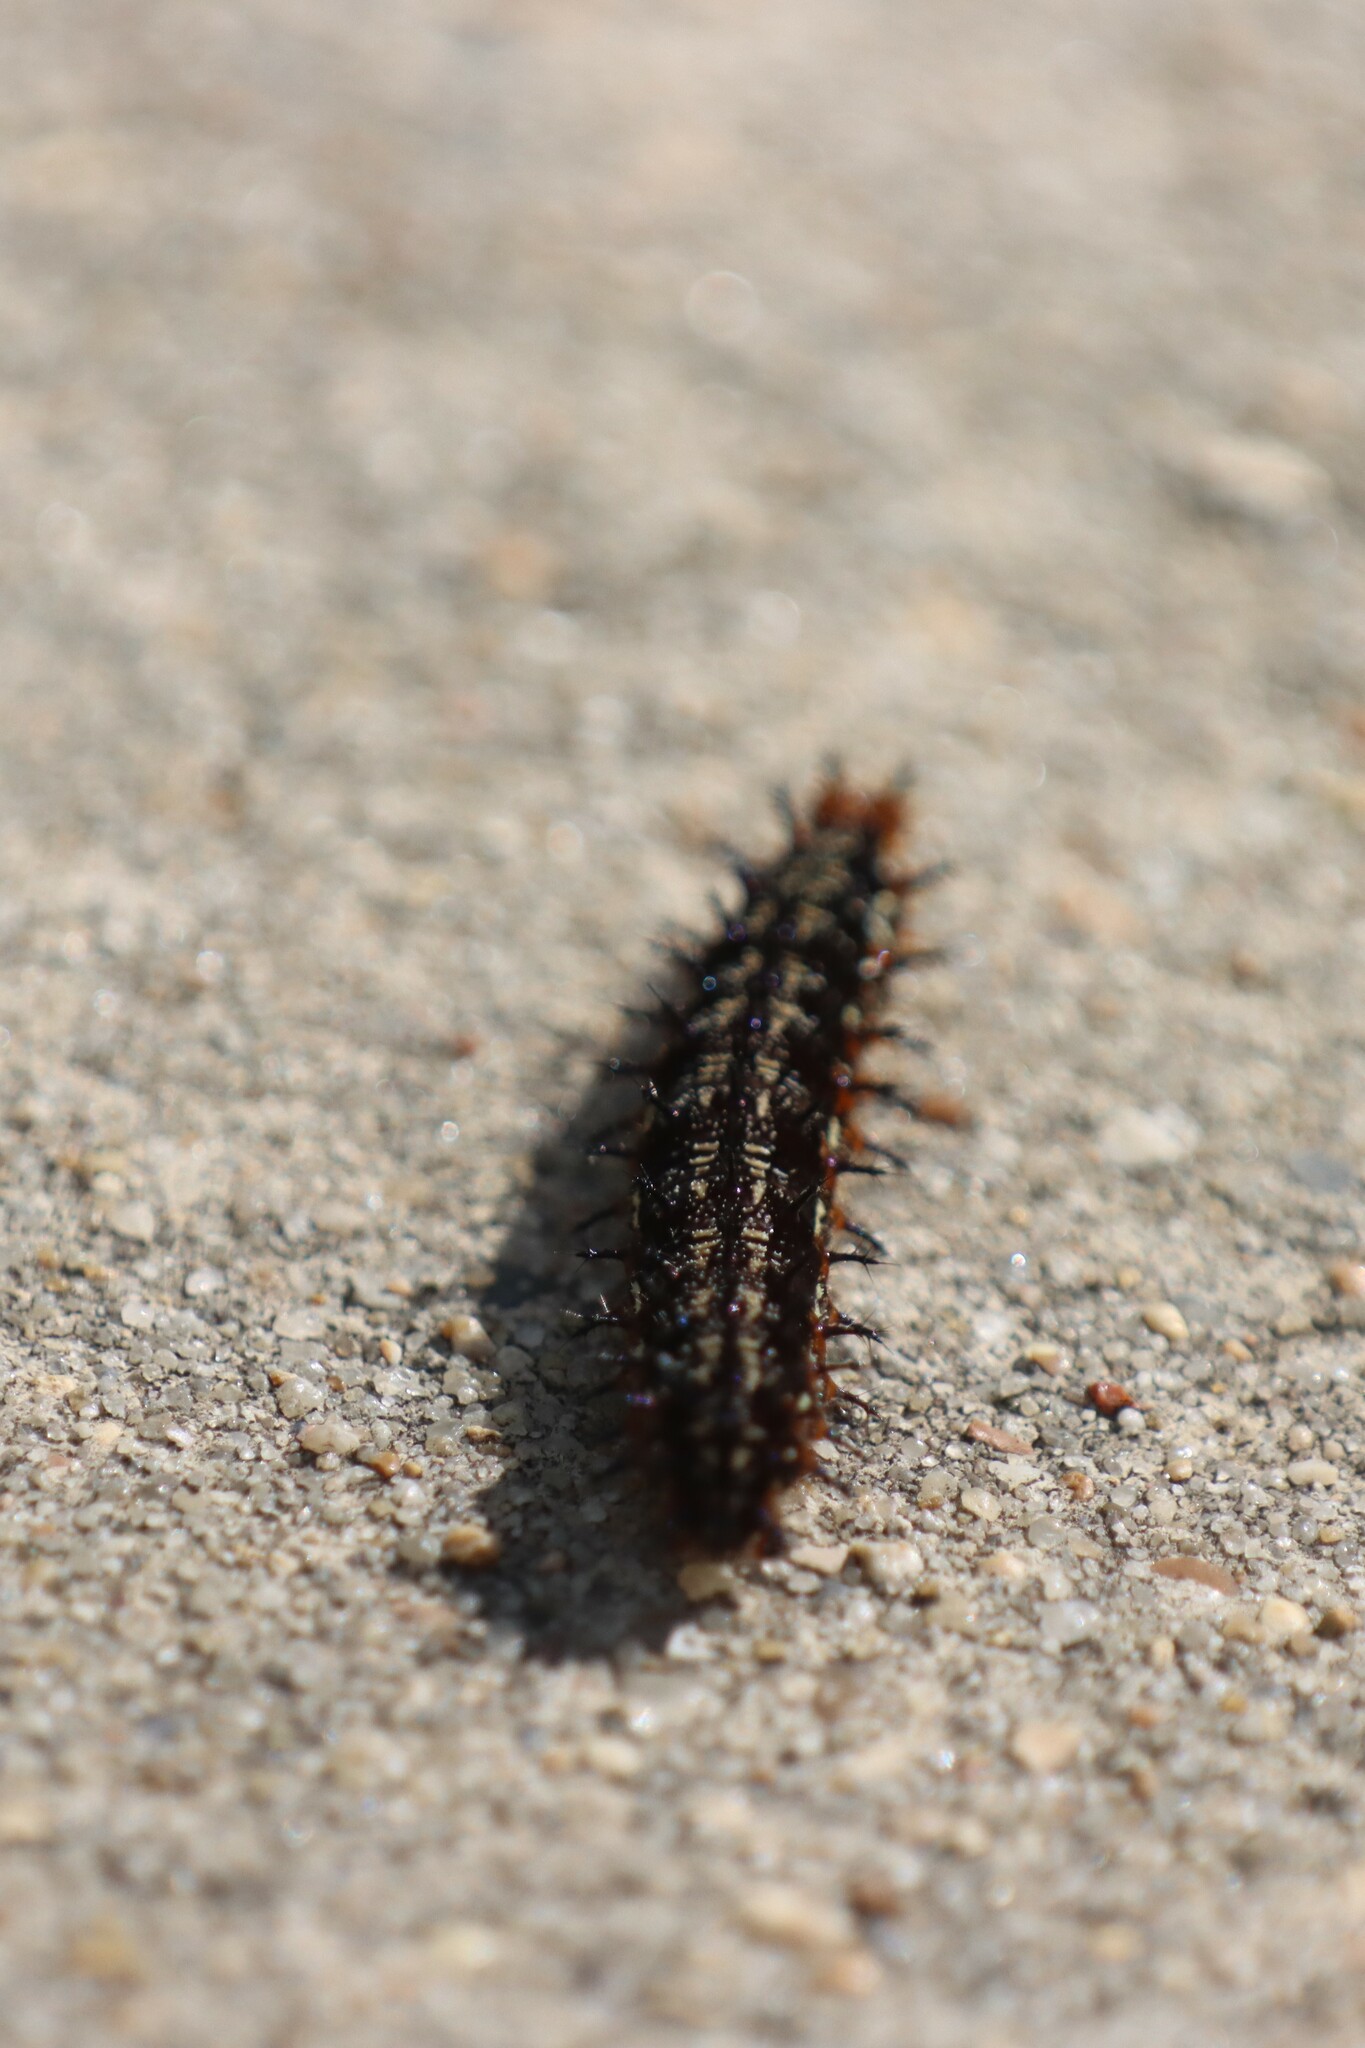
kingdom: Animalia
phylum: Arthropoda
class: Insecta
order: Lepidoptera
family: Nymphalidae
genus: Junonia
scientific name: Junonia coenia
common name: Common buckeye
